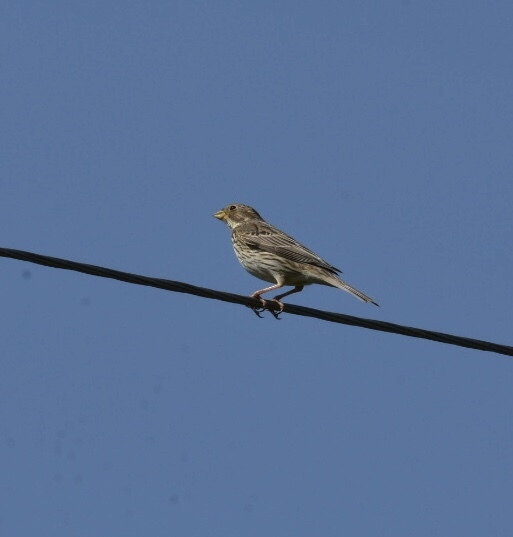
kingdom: Animalia
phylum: Chordata
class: Aves
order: Passeriformes
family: Emberizidae
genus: Emberiza
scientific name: Emberiza calandra
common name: Corn bunting
